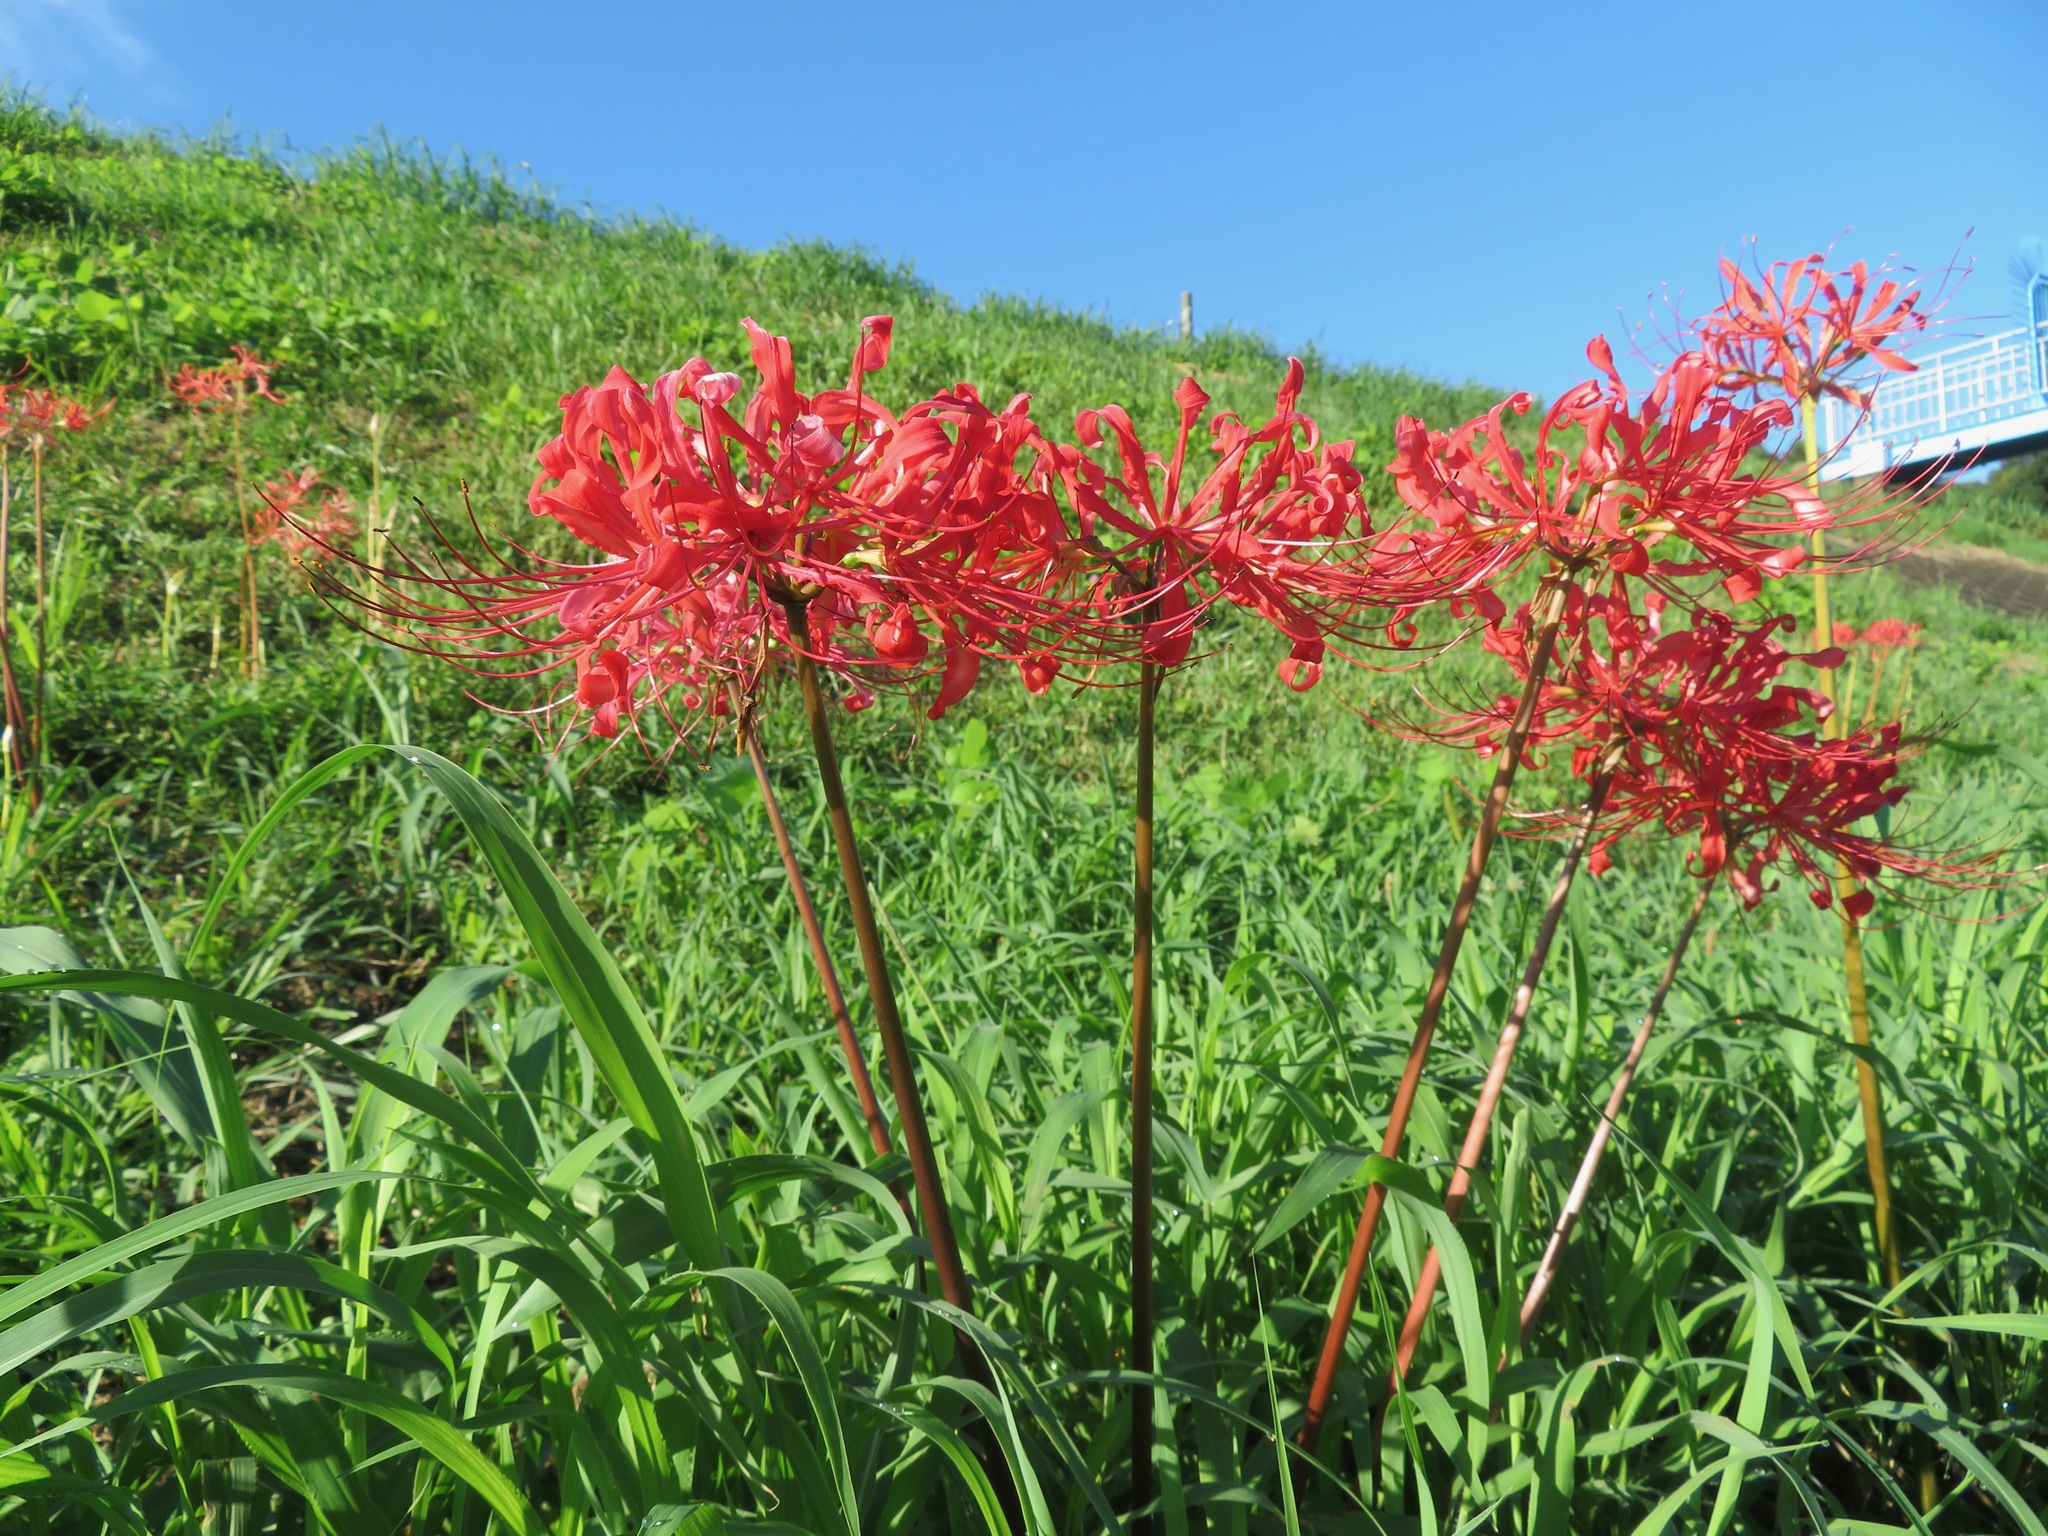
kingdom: Plantae
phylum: Tracheophyta
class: Liliopsida
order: Asparagales
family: Amaryllidaceae
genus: Lycoris
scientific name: Lycoris radiata
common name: Red spider lily
